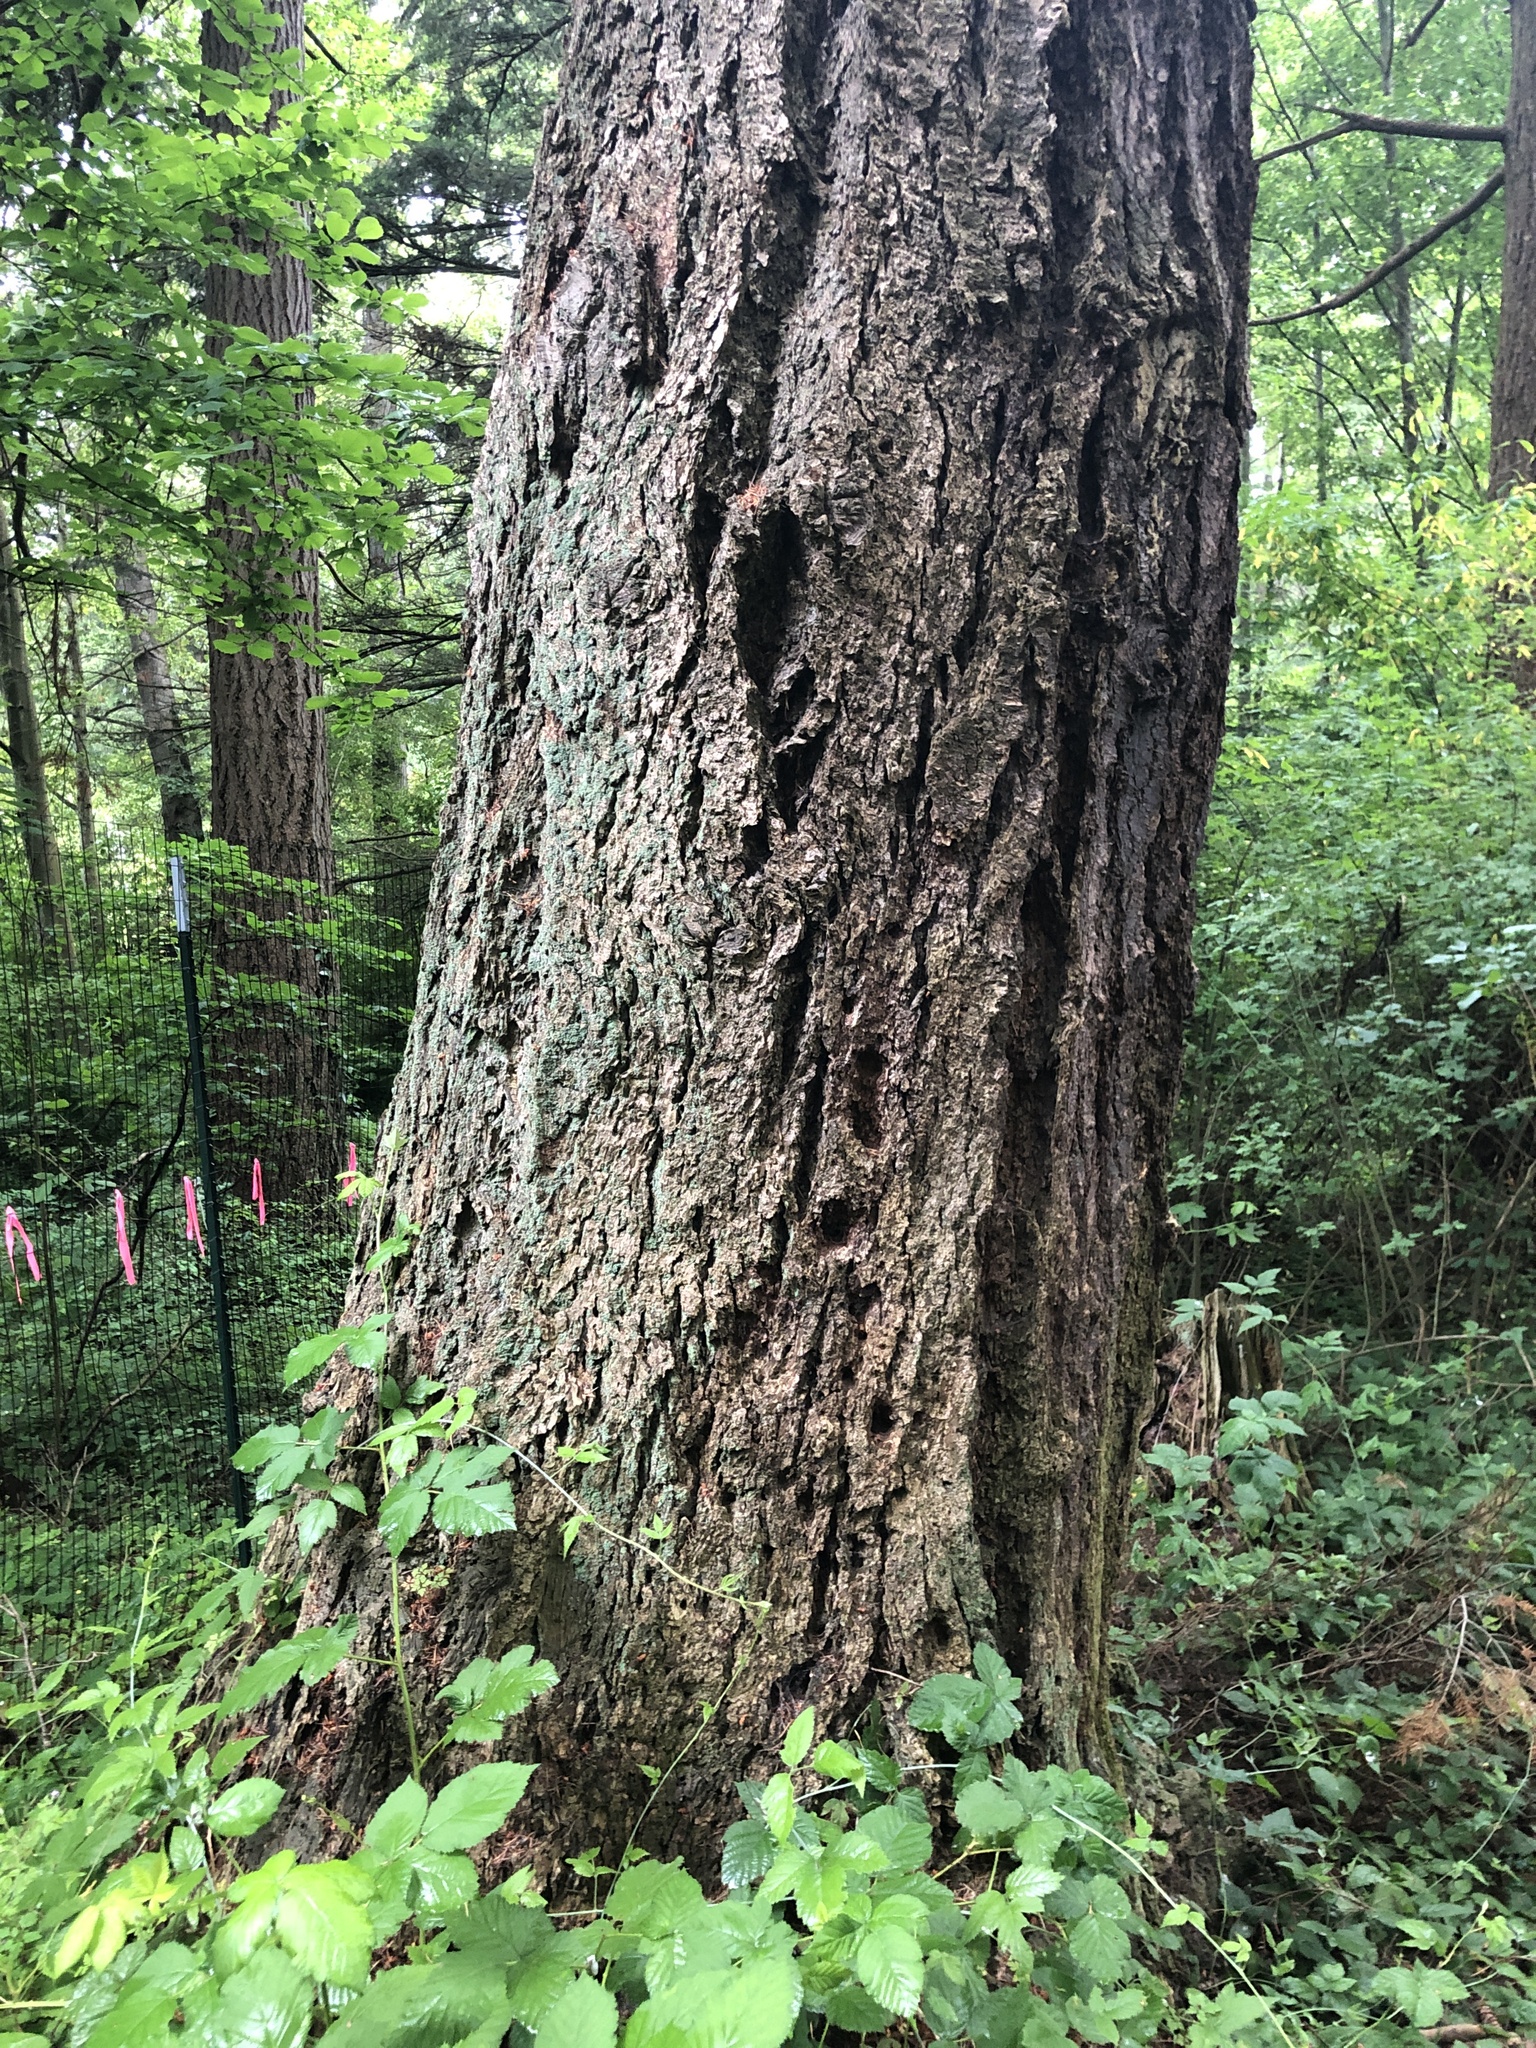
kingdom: Plantae
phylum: Tracheophyta
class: Pinopsida
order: Pinales
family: Pinaceae
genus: Pseudotsuga
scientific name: Pseudotsuga menziesii
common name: Douglas fir
